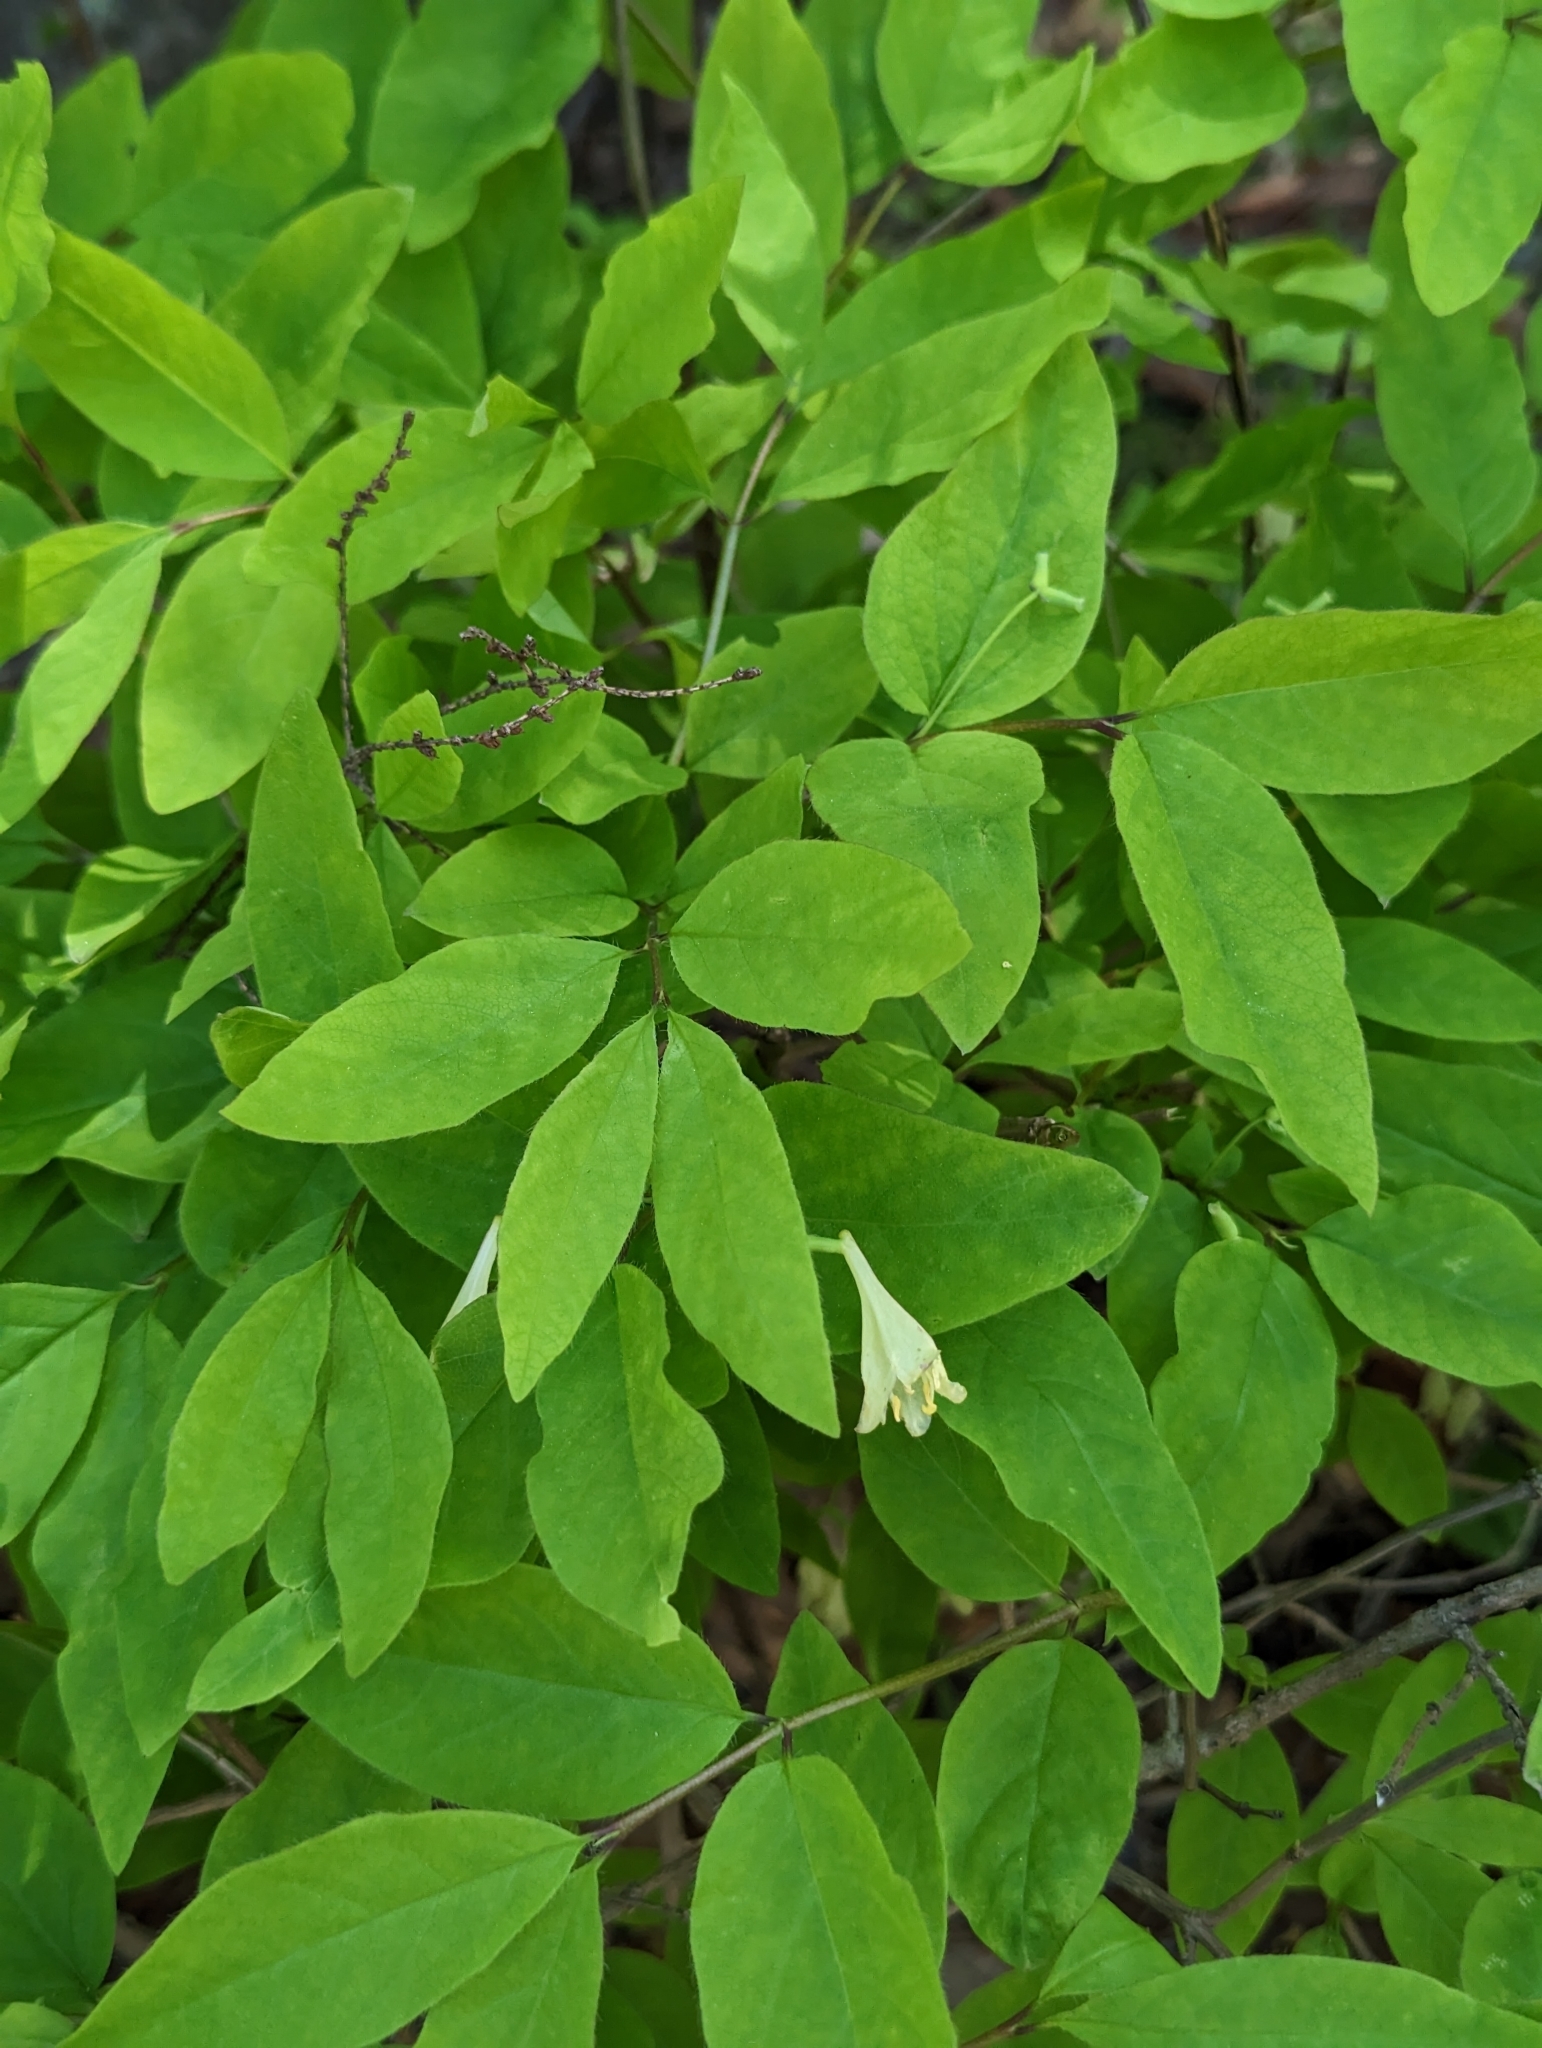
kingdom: Plantae
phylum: Tracheophyta
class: Magnoliopsida
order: Dipsacales
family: Caprifoliaceae
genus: Lonicera
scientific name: Lonicera canadensis
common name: American fly-honeysuckle
